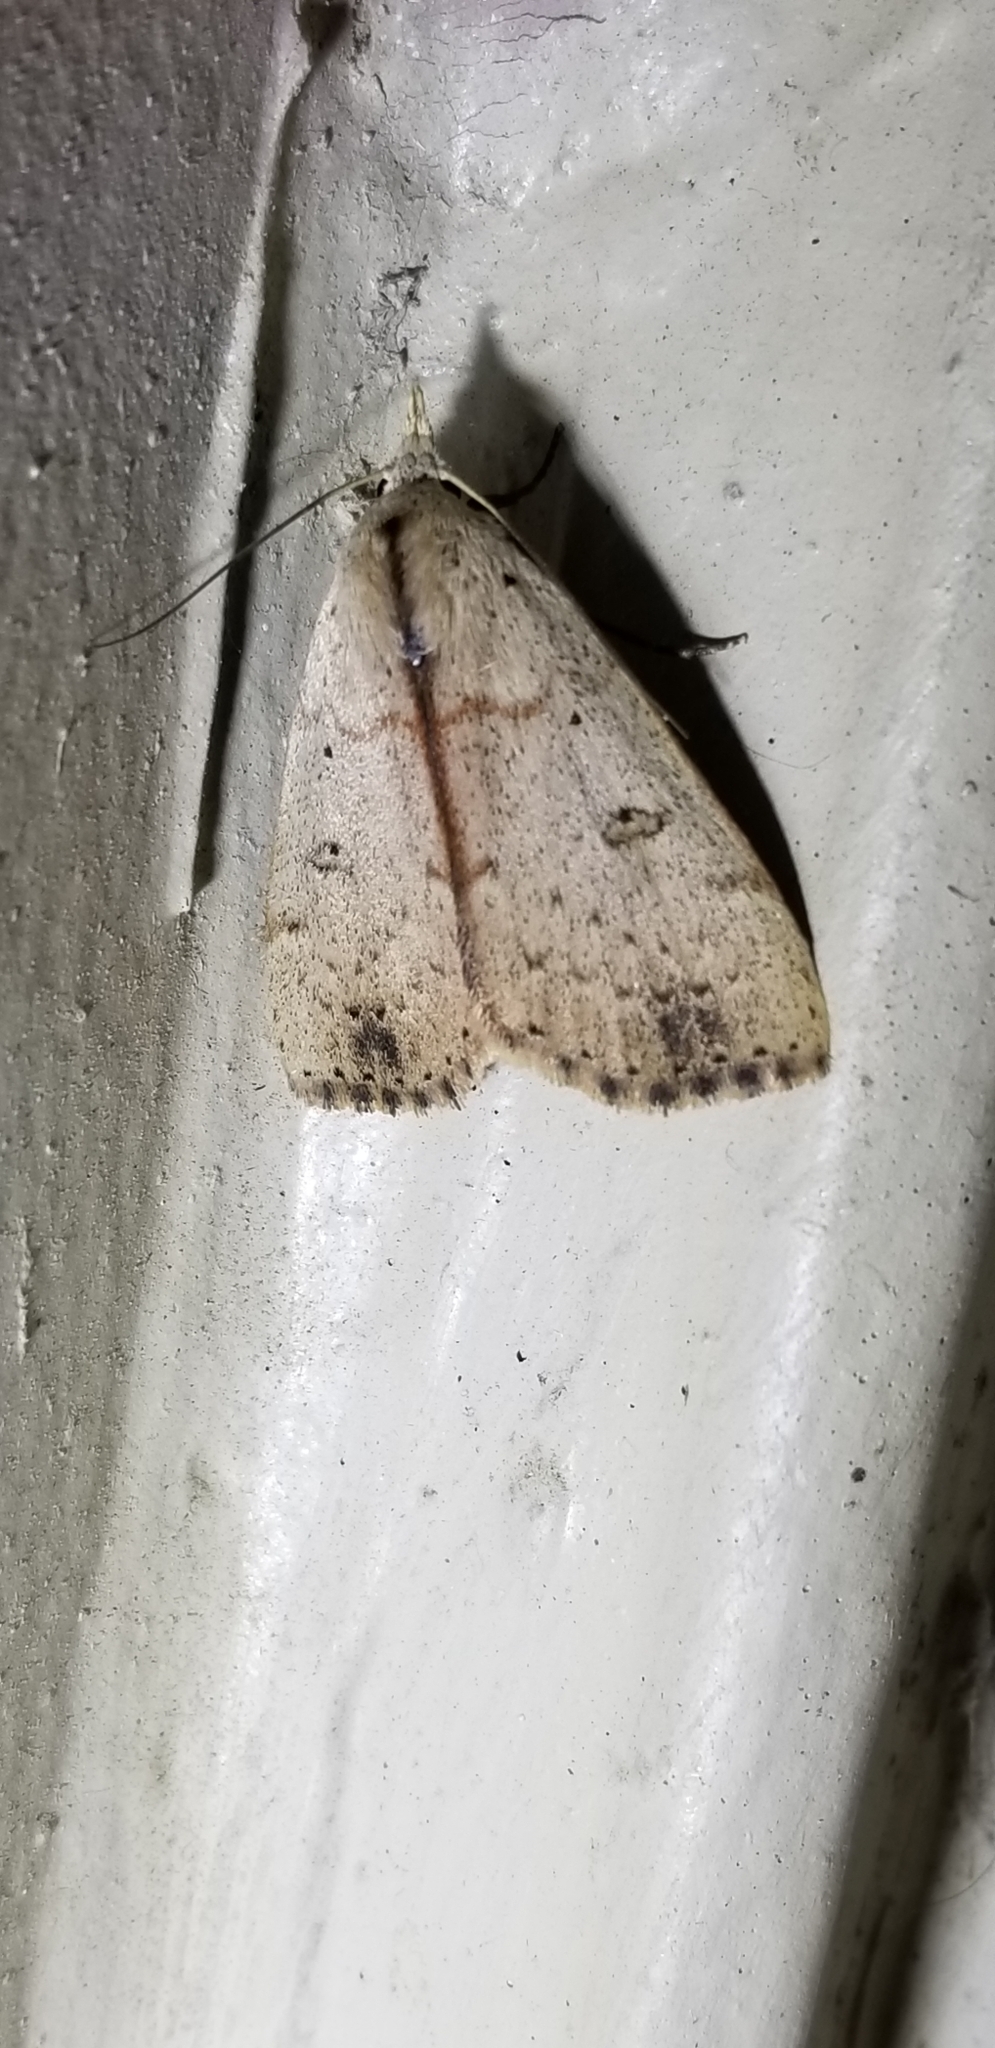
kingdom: Animalia
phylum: Arthropoda
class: Insecta
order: Lepidoptera
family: Erebidae
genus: Scolecocampa
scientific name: Scolecocampa liburna
